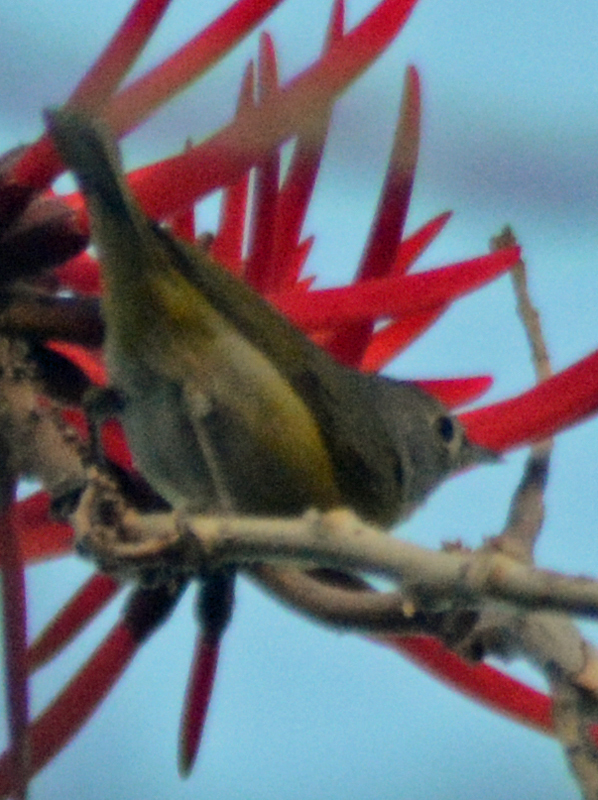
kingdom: Animalia
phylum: Chordata
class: Aves
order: Passeriformes
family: Parulidae
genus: Leiothlypis
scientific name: Leiothlypis ruficapilla
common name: Nashville warbler
